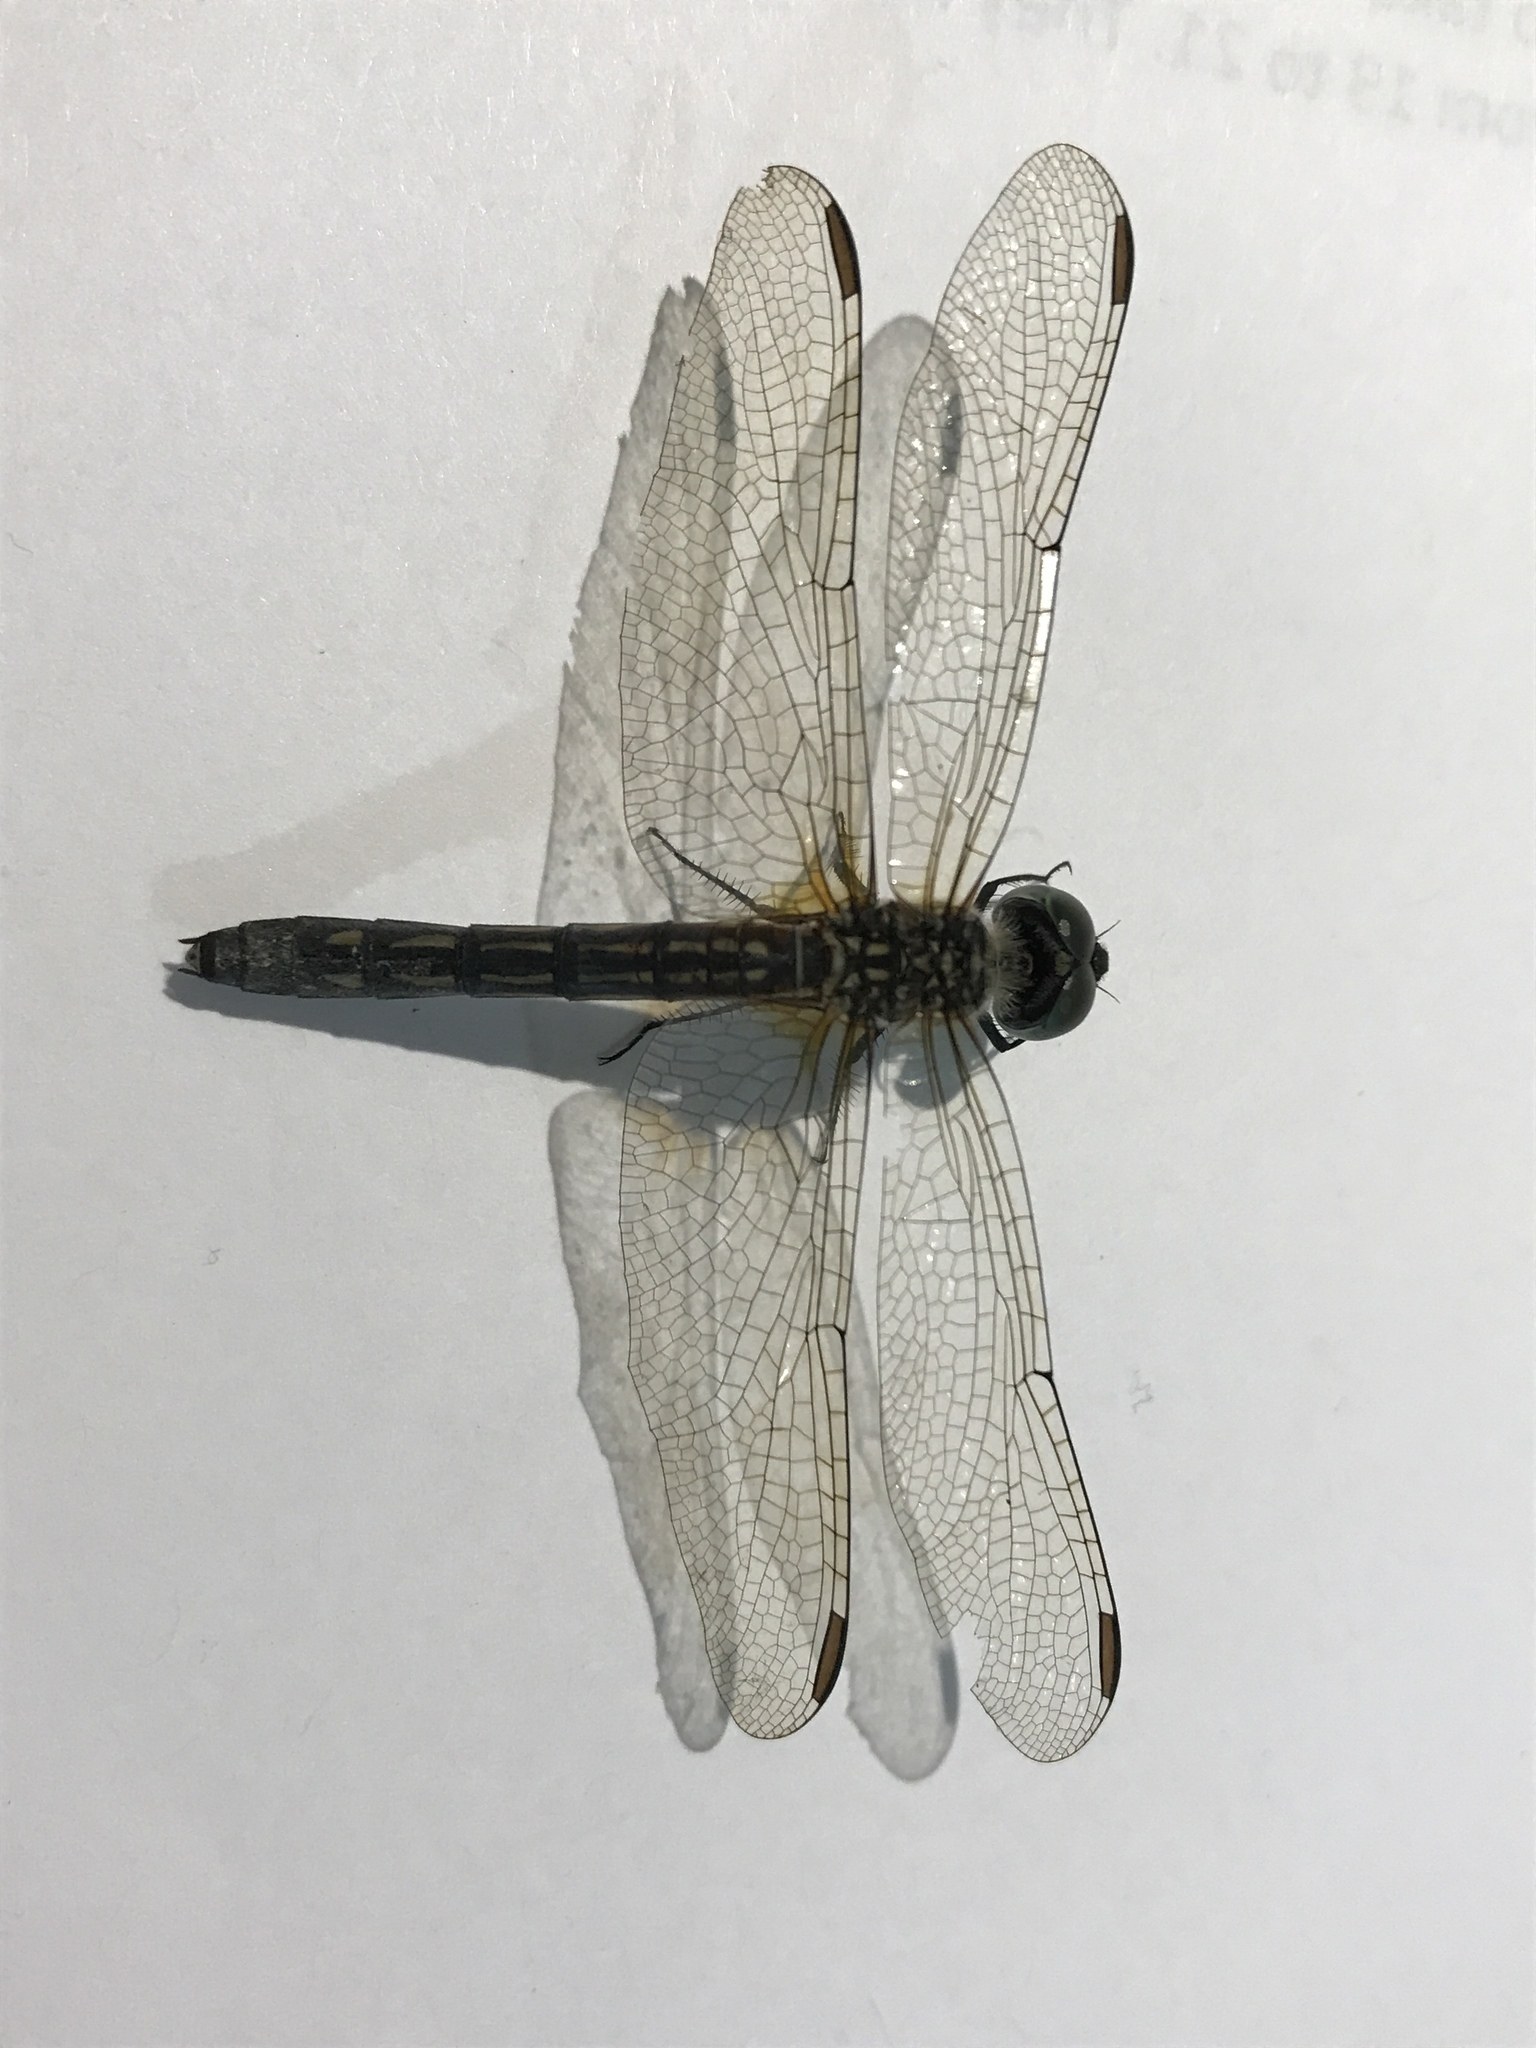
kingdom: Animalia
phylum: Arthropoda
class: Insecta
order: Odonata
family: Libellulidae
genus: Pachydiplax
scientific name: Pachydiplax longipennis
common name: Blue dasher
